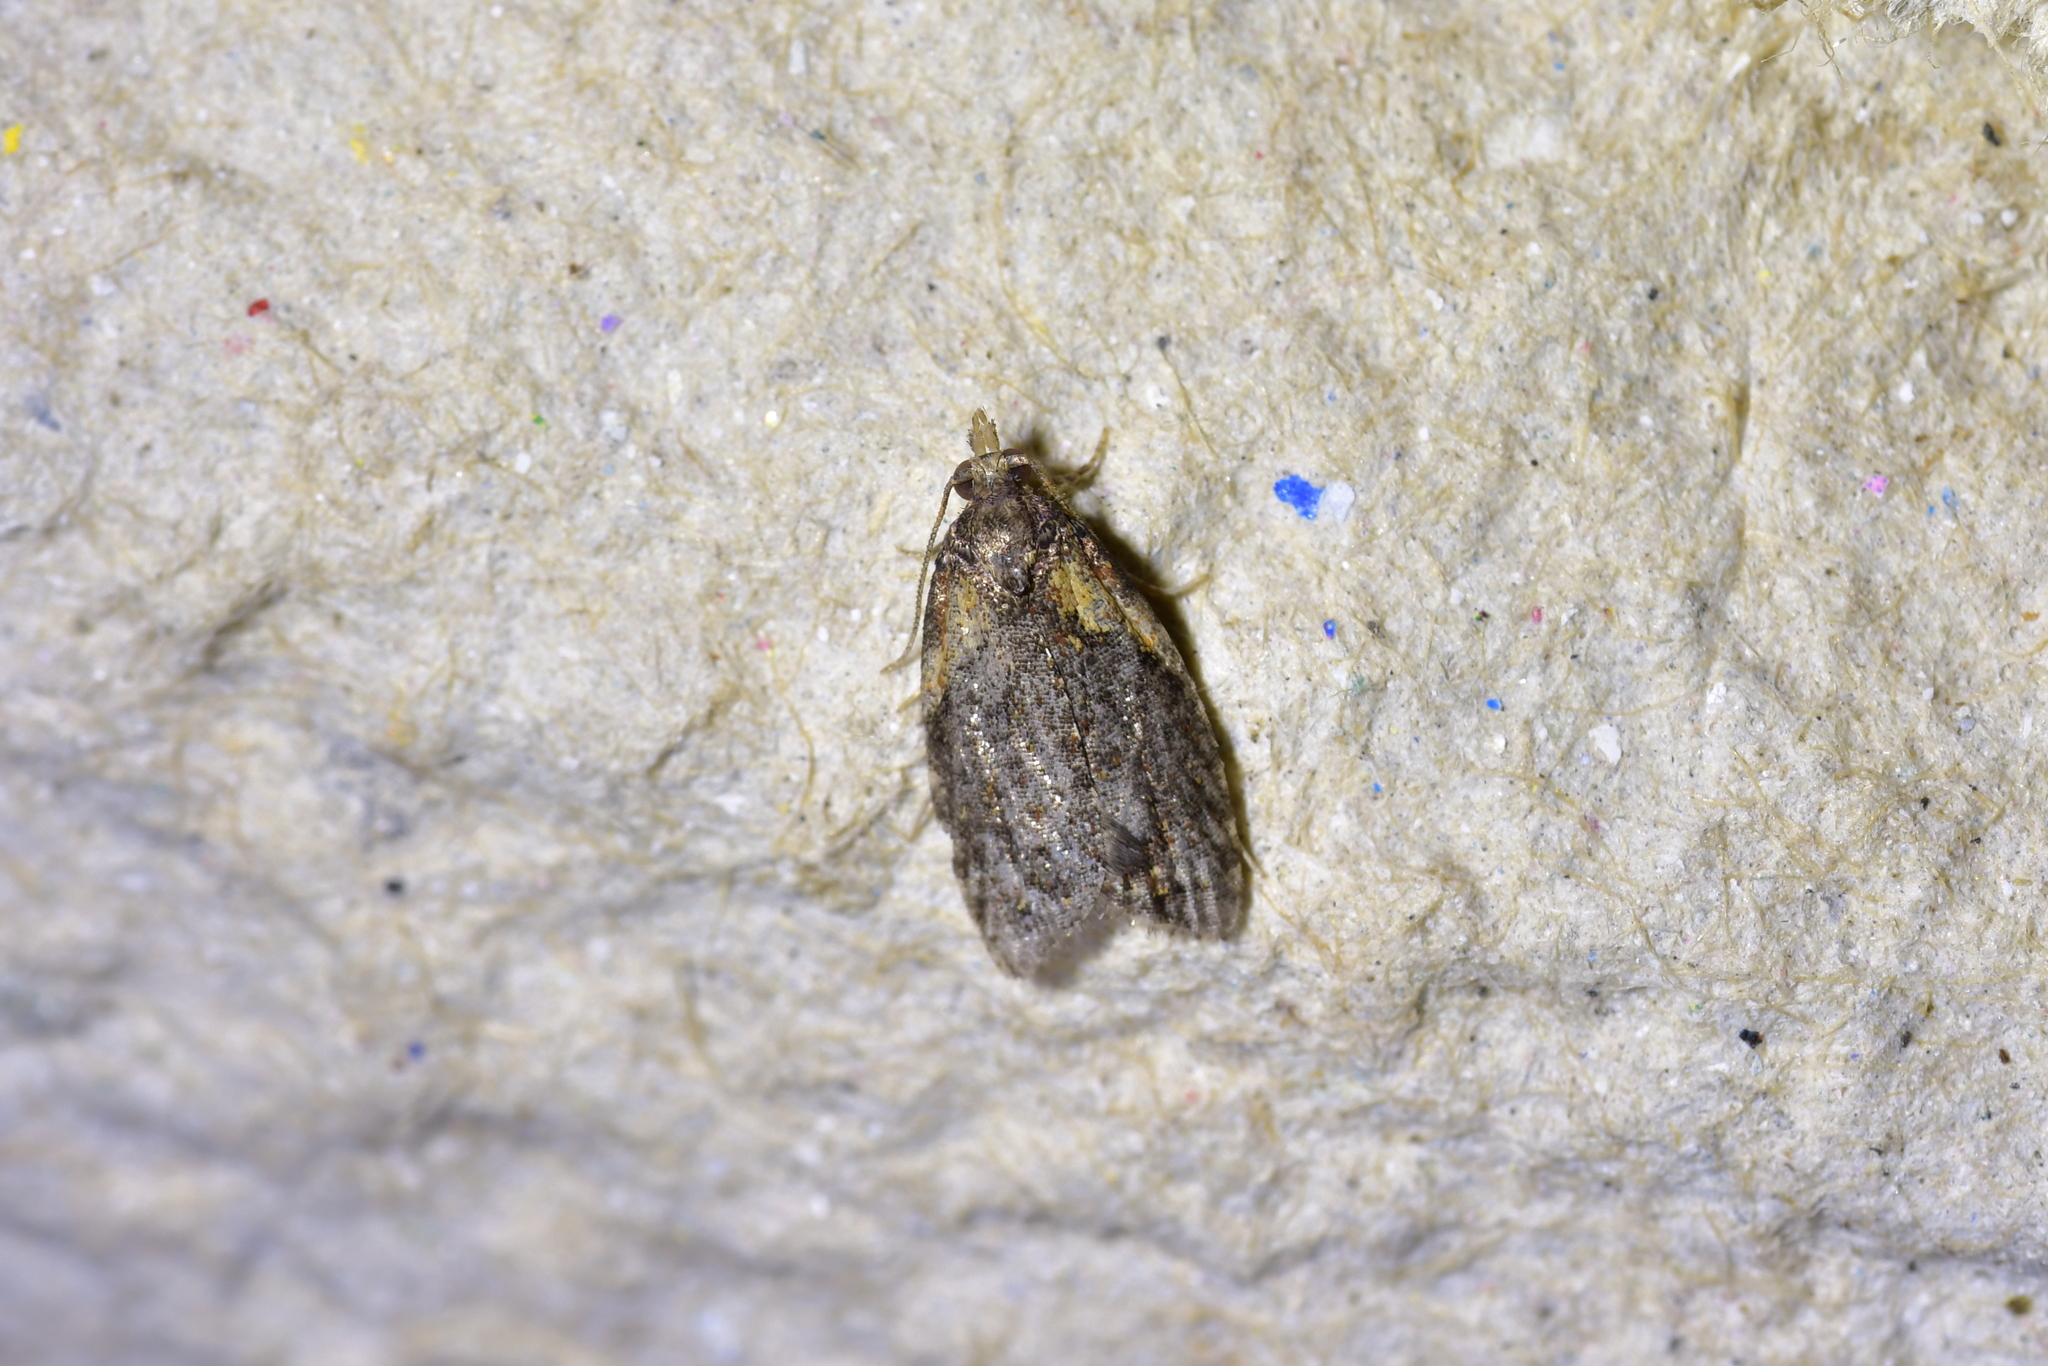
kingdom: Animalia
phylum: Arthropoda
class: Insecta
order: Lepidoptera
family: Tortricidae
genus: Capua
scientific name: Capua intractana
